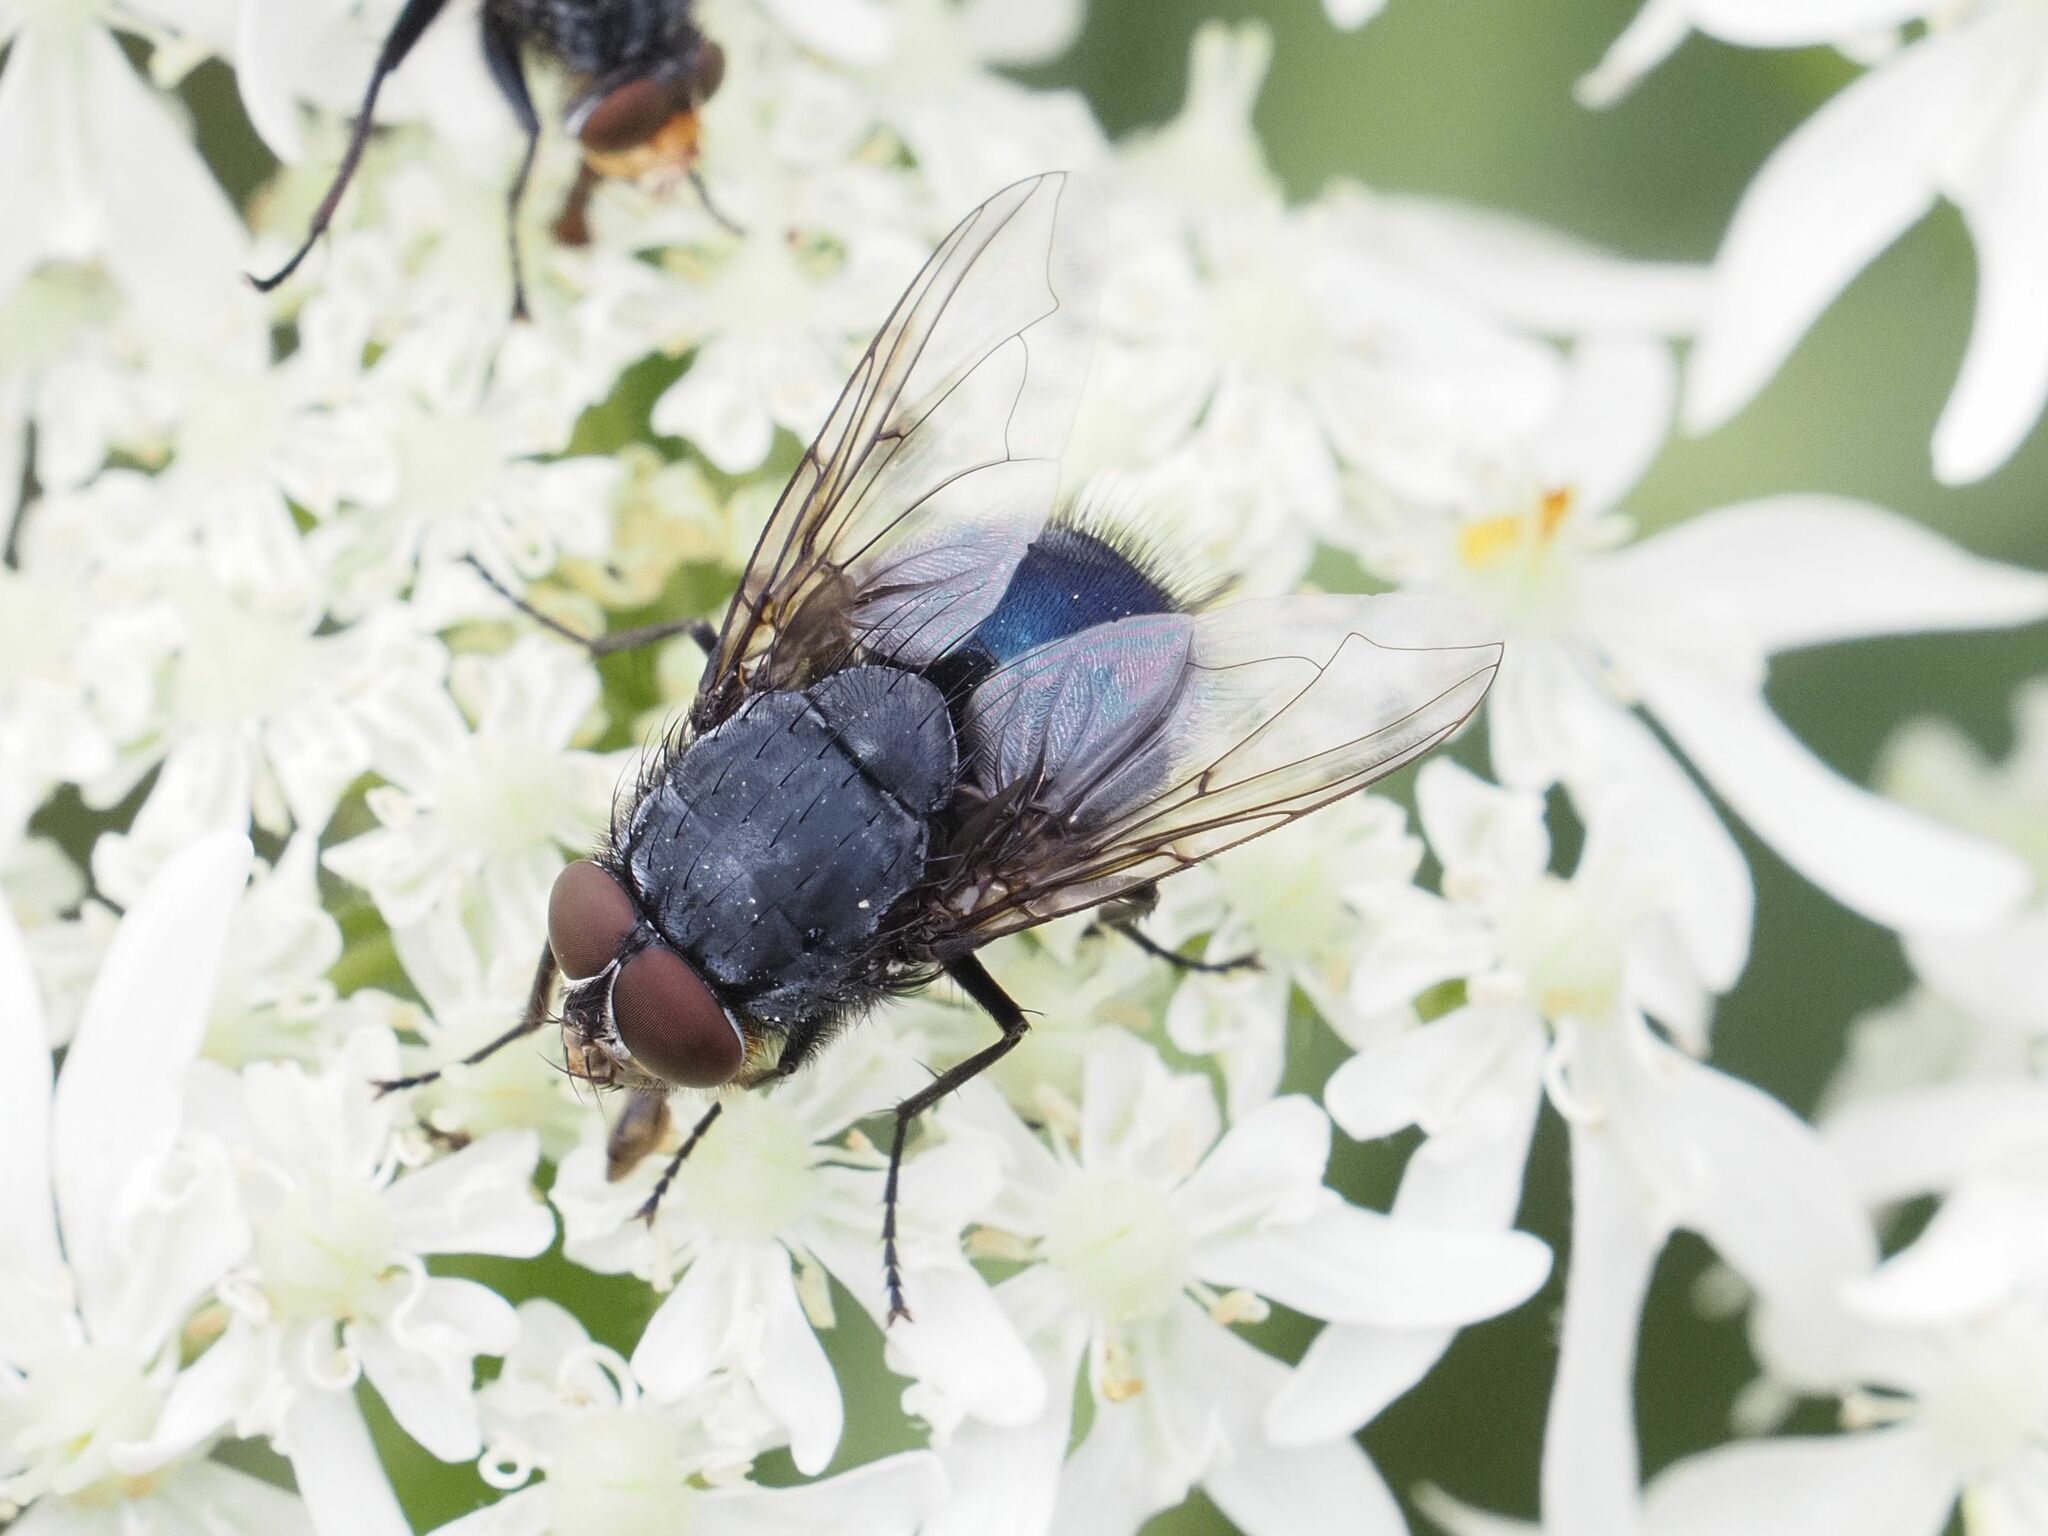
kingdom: Animalia
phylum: Arthropoda
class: Insecta
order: Diptera
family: Calliphoridae
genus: Calliphora
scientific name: Calliphora vomitoria
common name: Blue bottle fly
